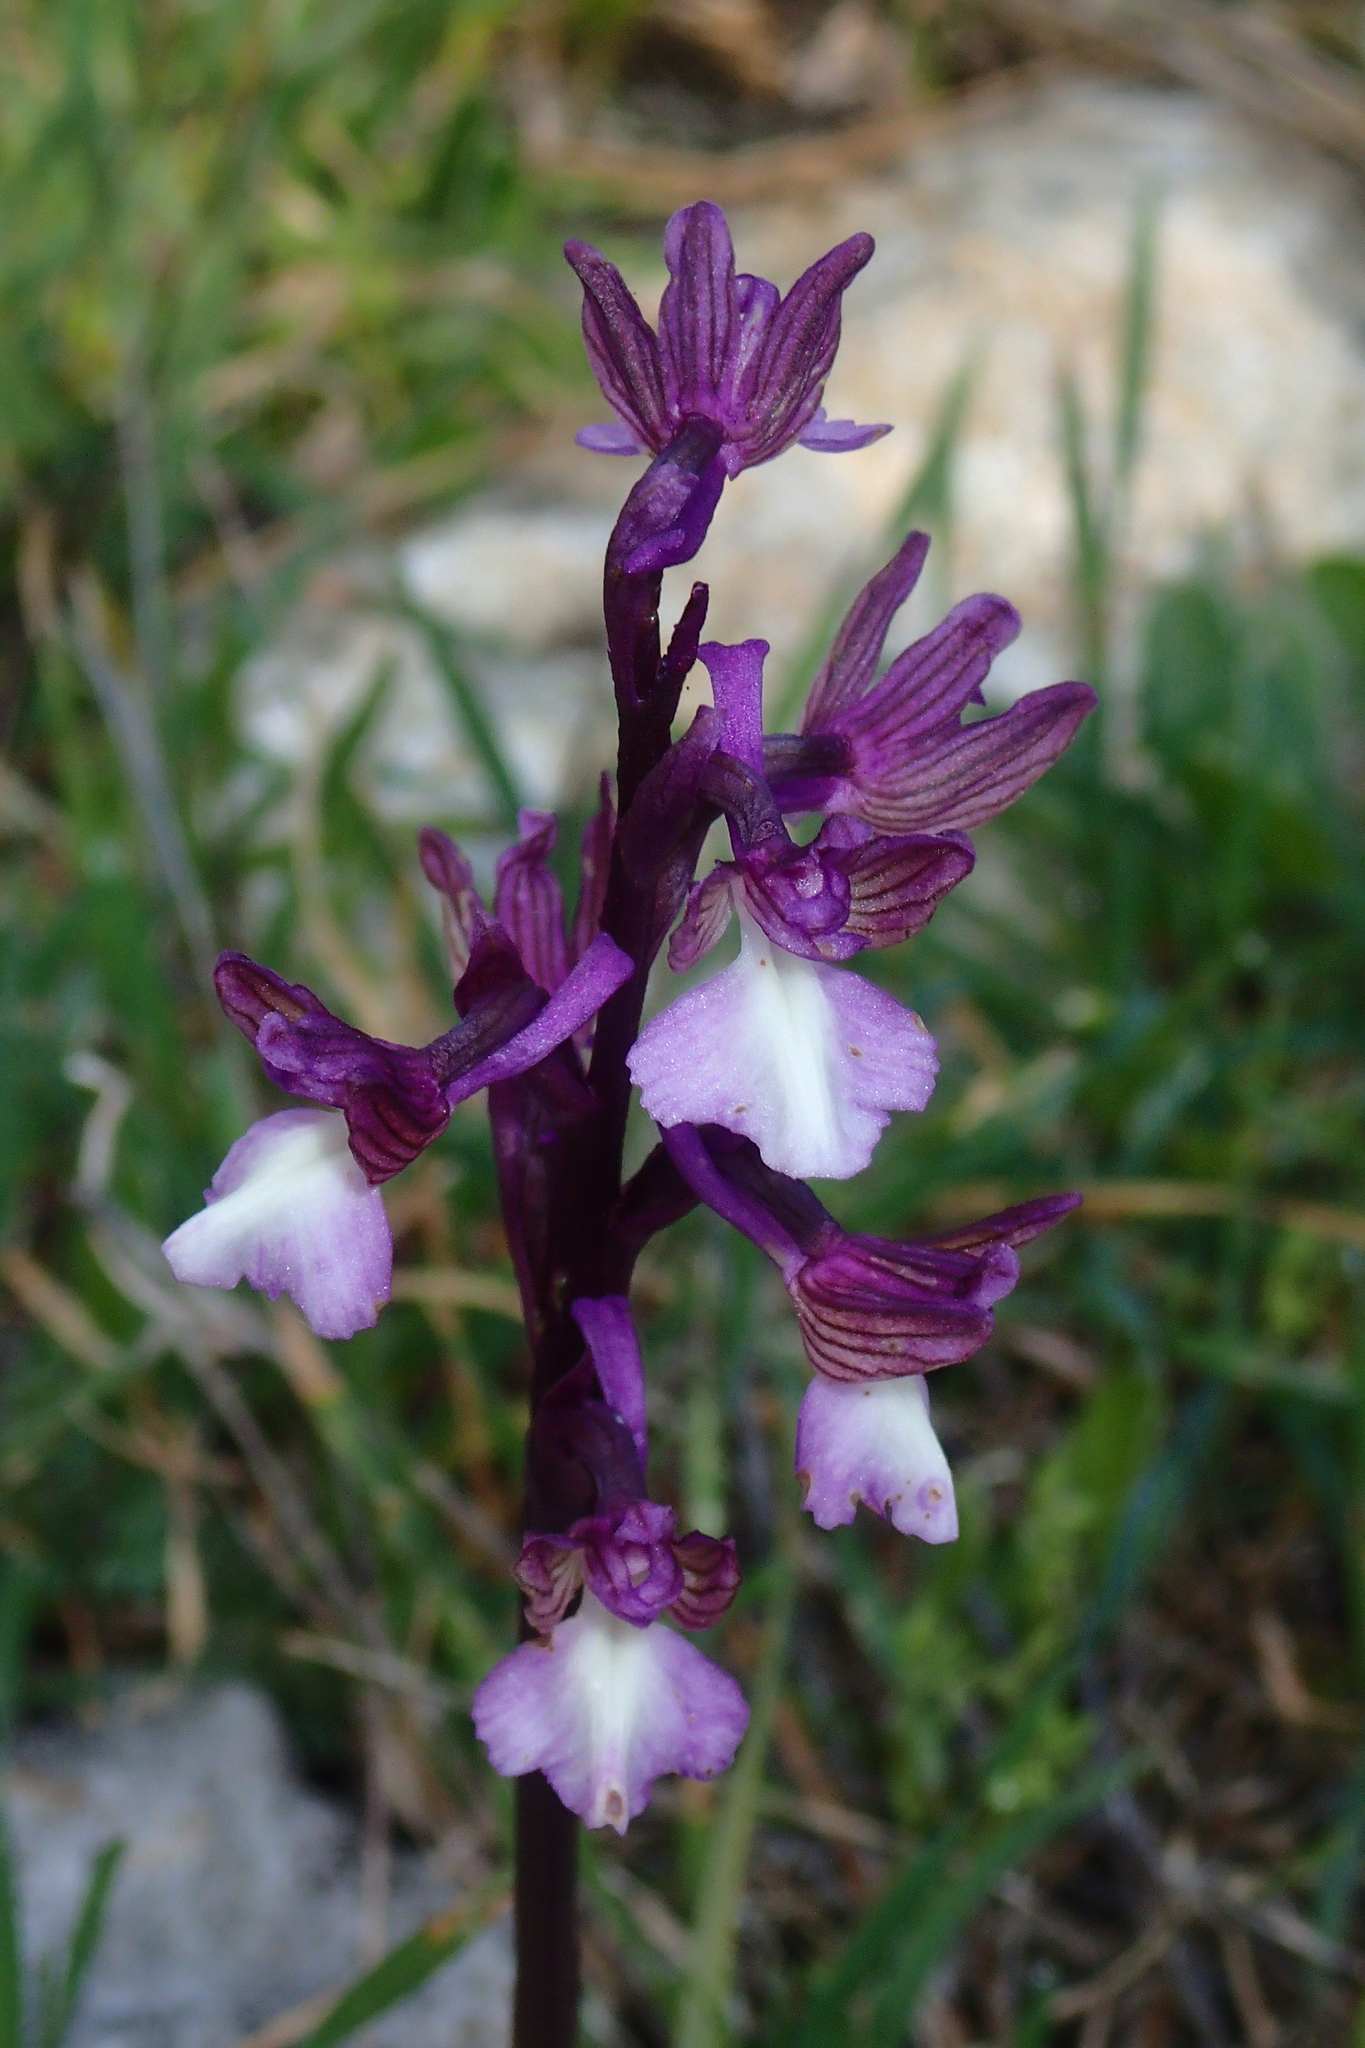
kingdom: Plantae
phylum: Tracheophyta
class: Liliopsida
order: Asparagales
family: Orchidaceae
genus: Anacamptis
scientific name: Anacamptis morio
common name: Green-winged orchid
